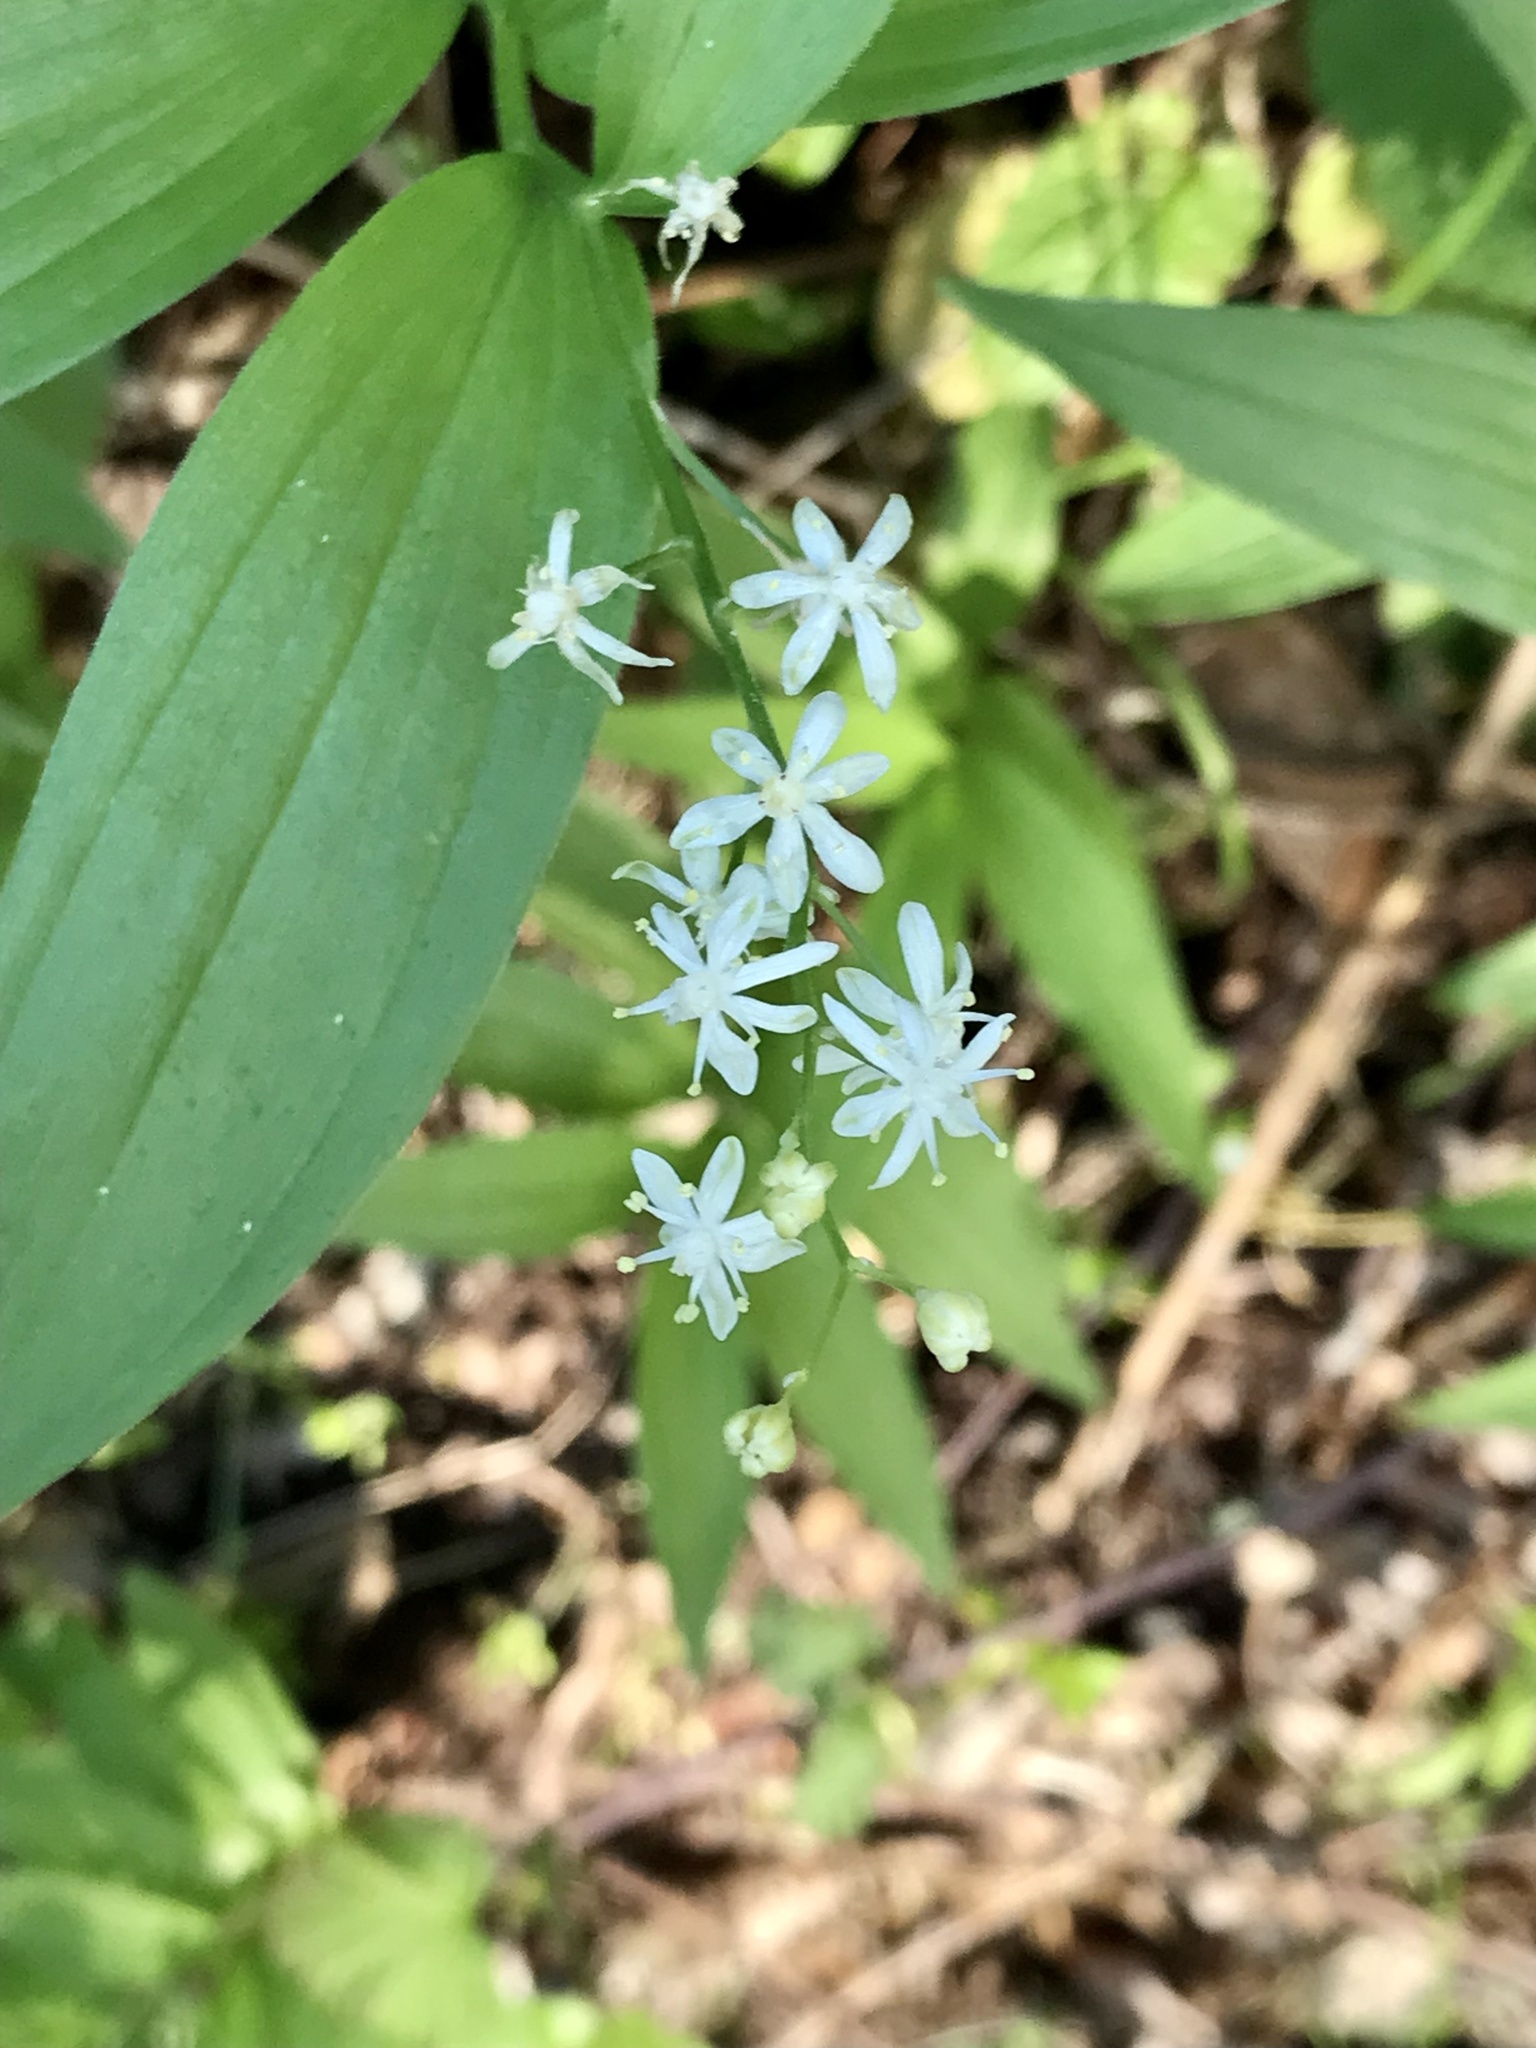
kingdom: Plantae
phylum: Tracheophyta
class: Liliopsida
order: Asparagales
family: Asparagaceae
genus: Maianthemum
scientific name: Maianthemum stellatum
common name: Little false solomon's seal
